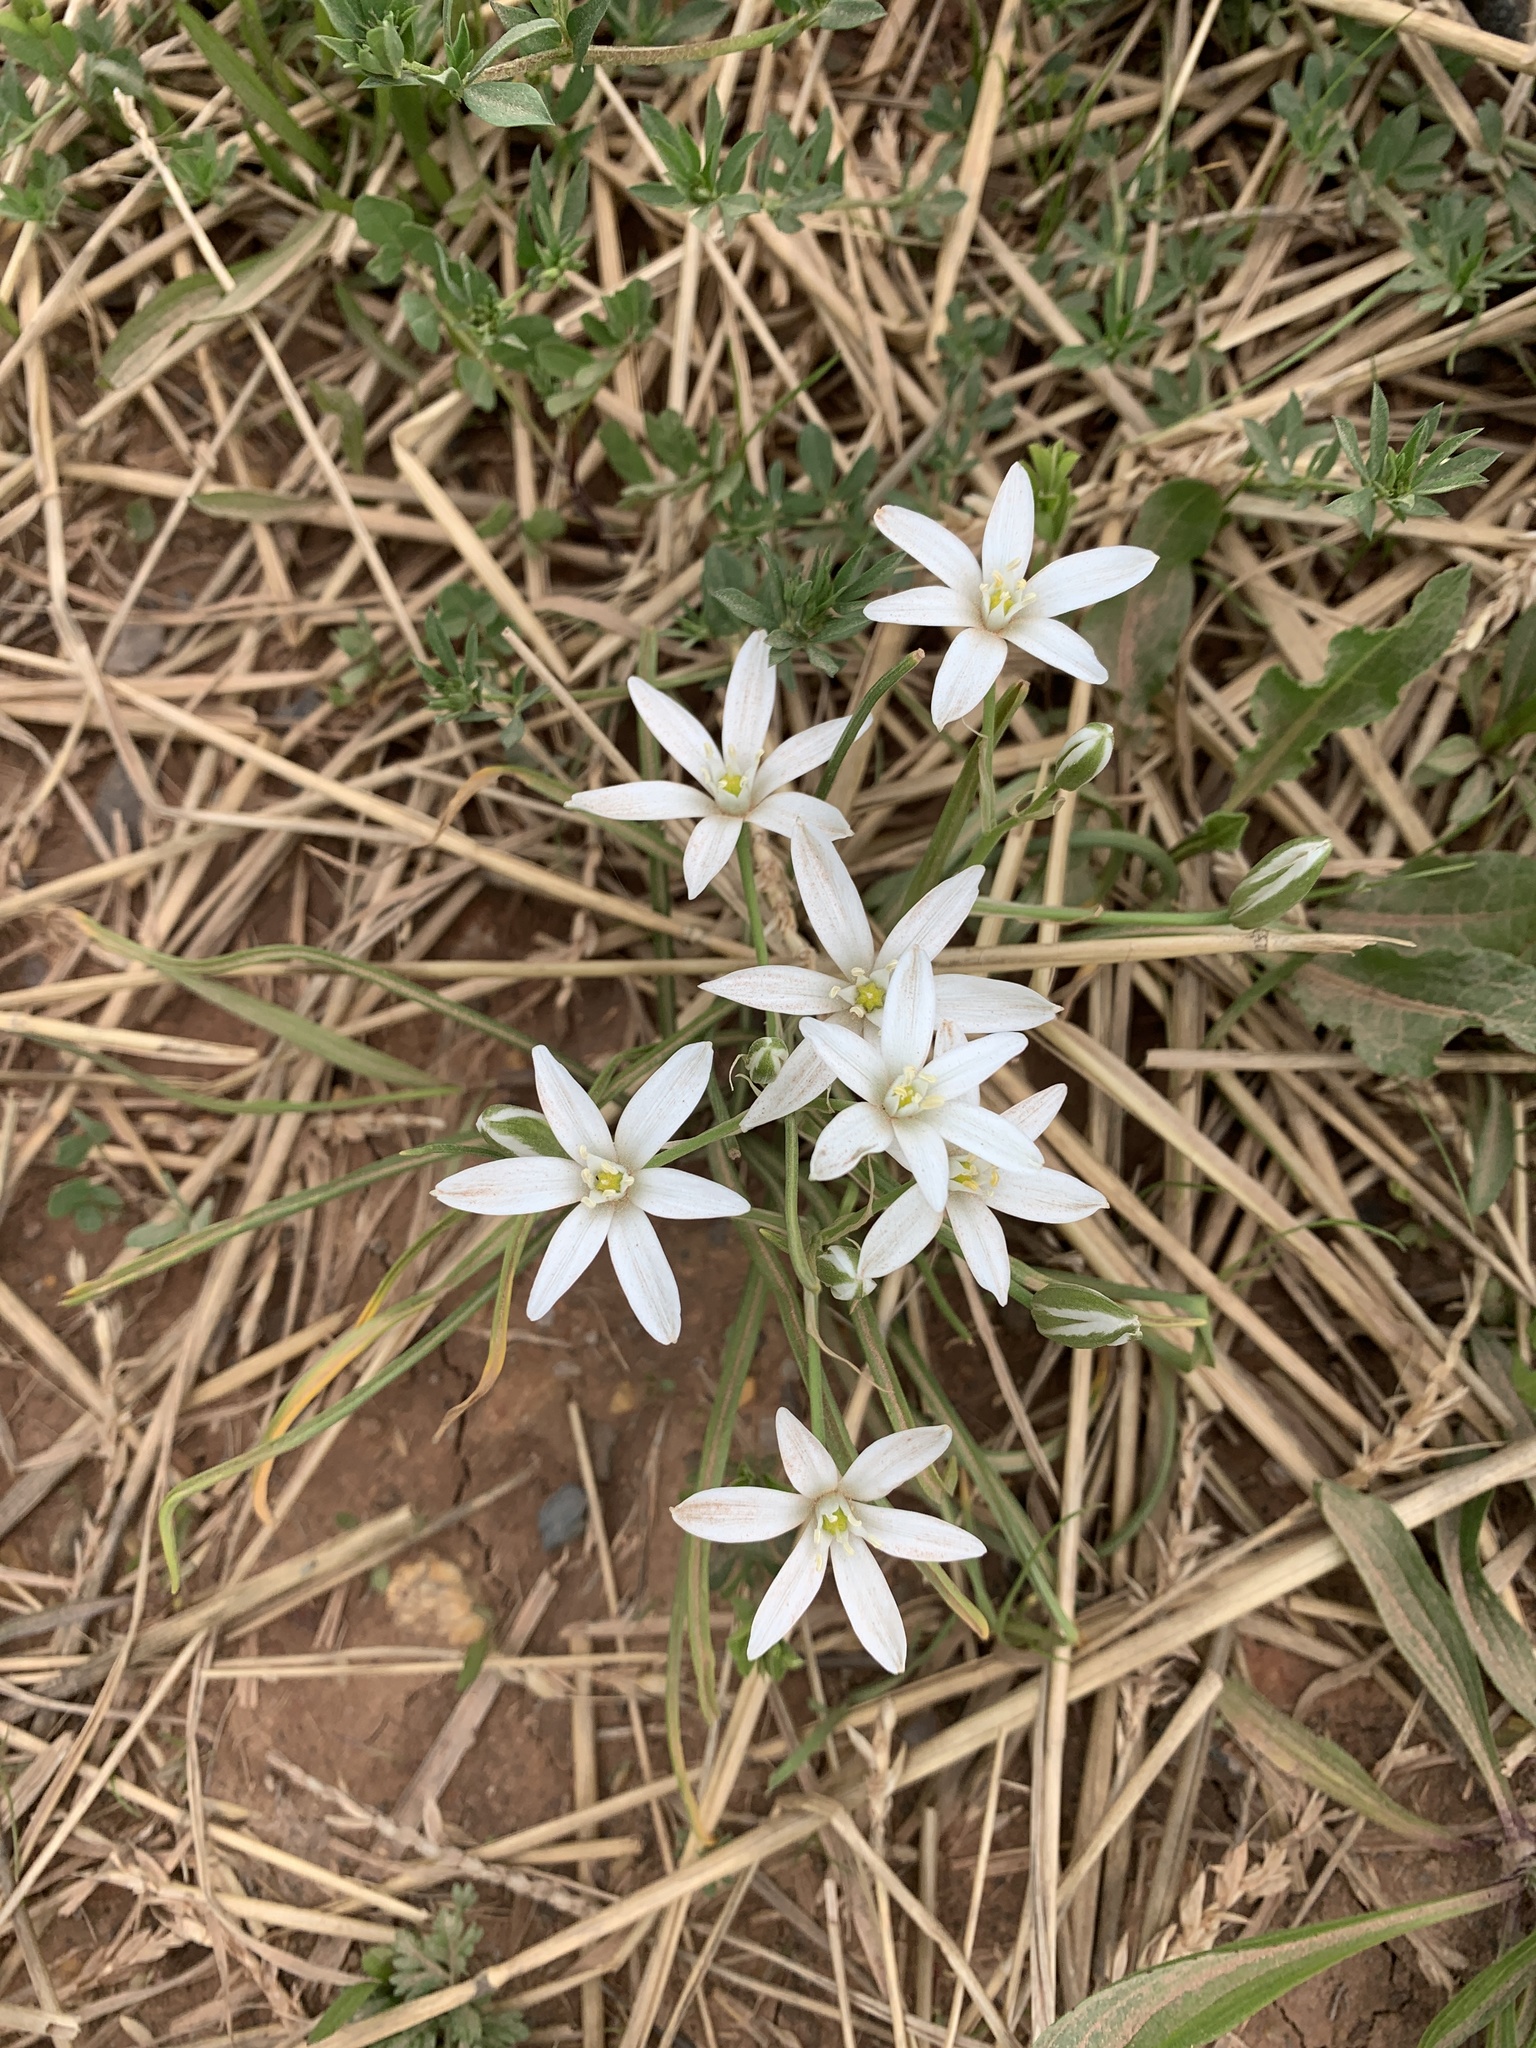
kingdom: Plantae
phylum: Tracheophyta
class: Liliopsida
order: Asparagales
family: Asparagaceae
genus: Ornithogalum
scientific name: Ornithogalum umbellatum
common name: Garden star-of-bethlehem
